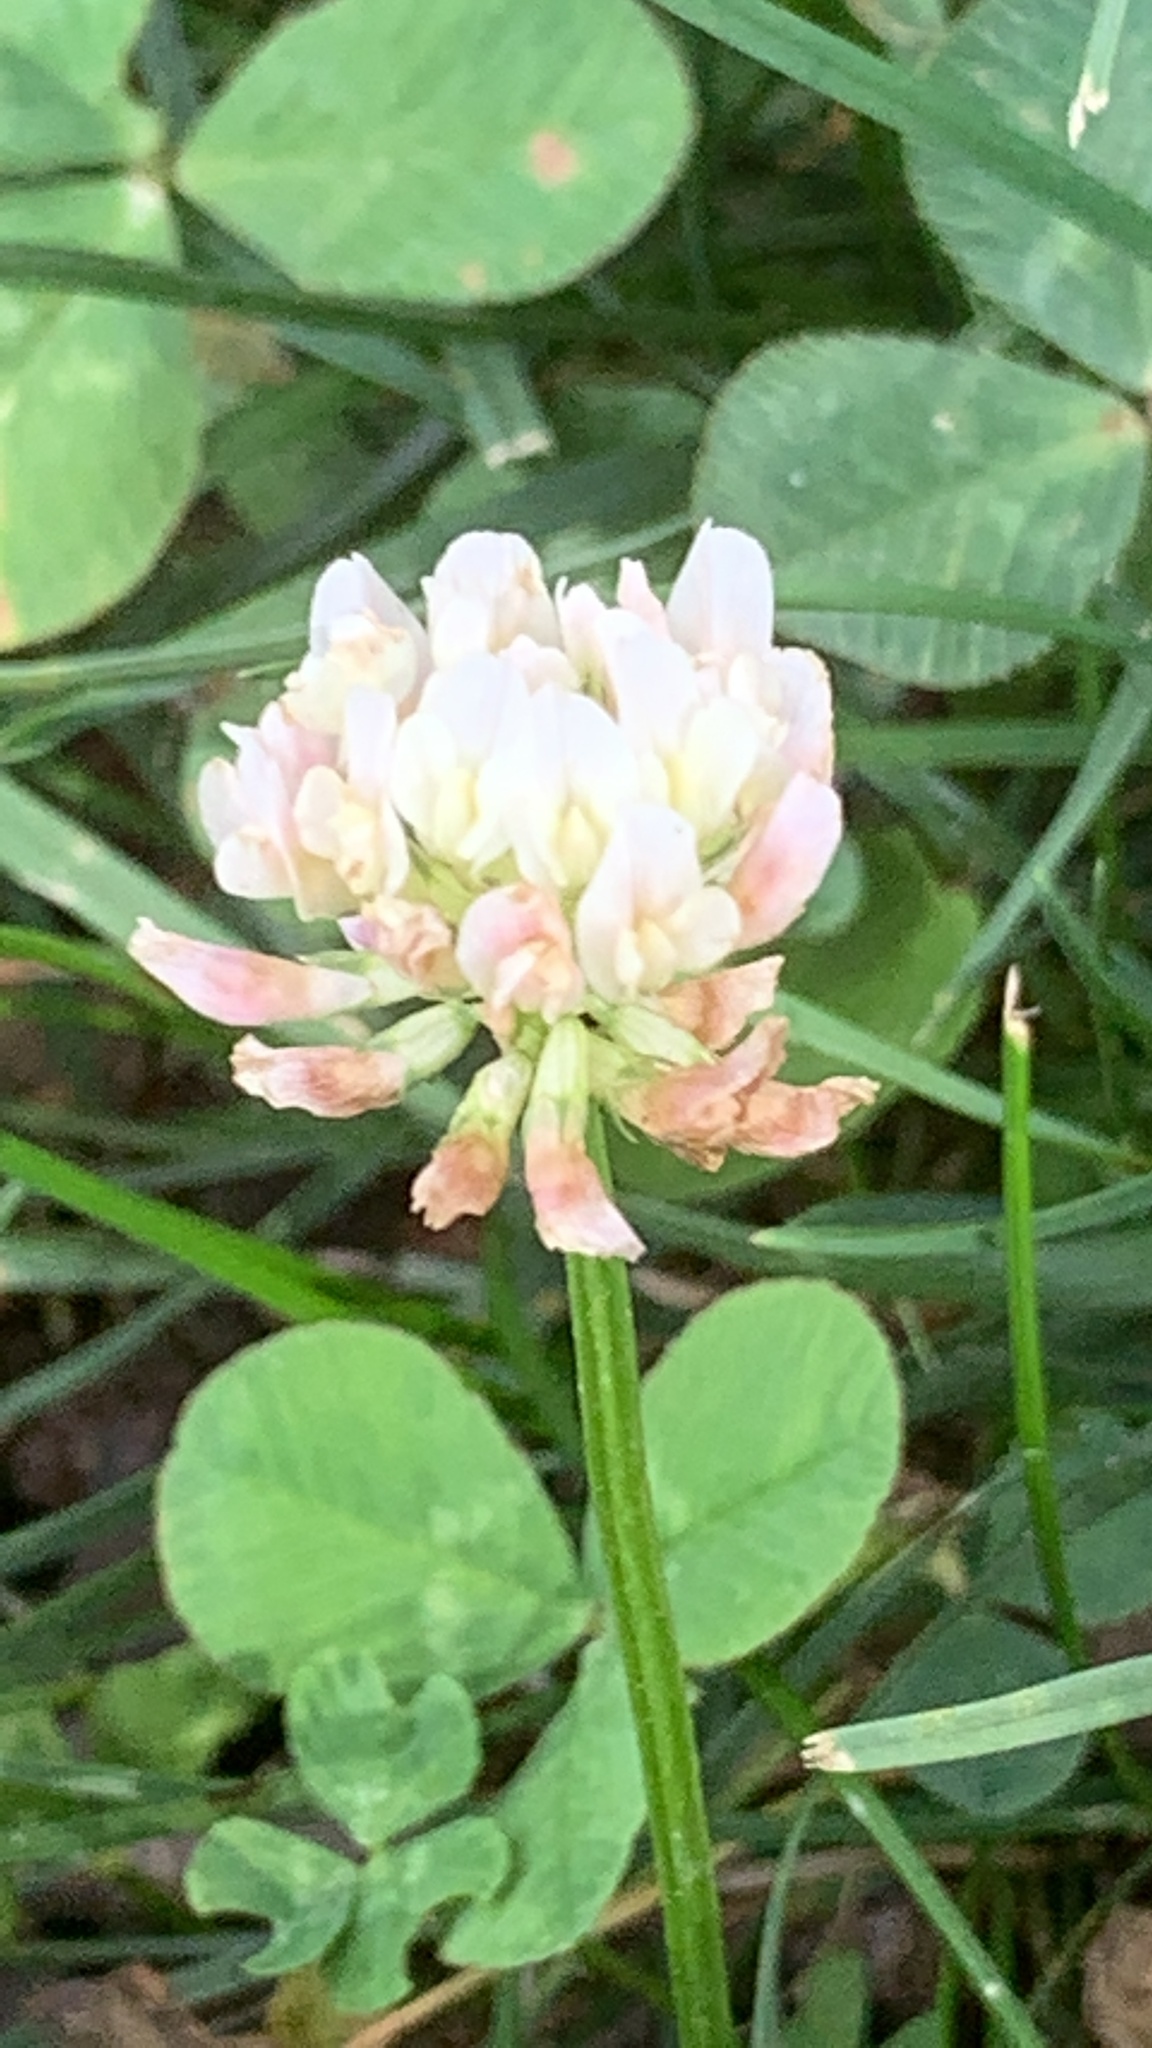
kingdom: Plantae
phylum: Tracheophyta
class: Magnoliopsida
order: Fabales
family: Fabaceae
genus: Trifolium
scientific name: Trifolium repens
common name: White clover
